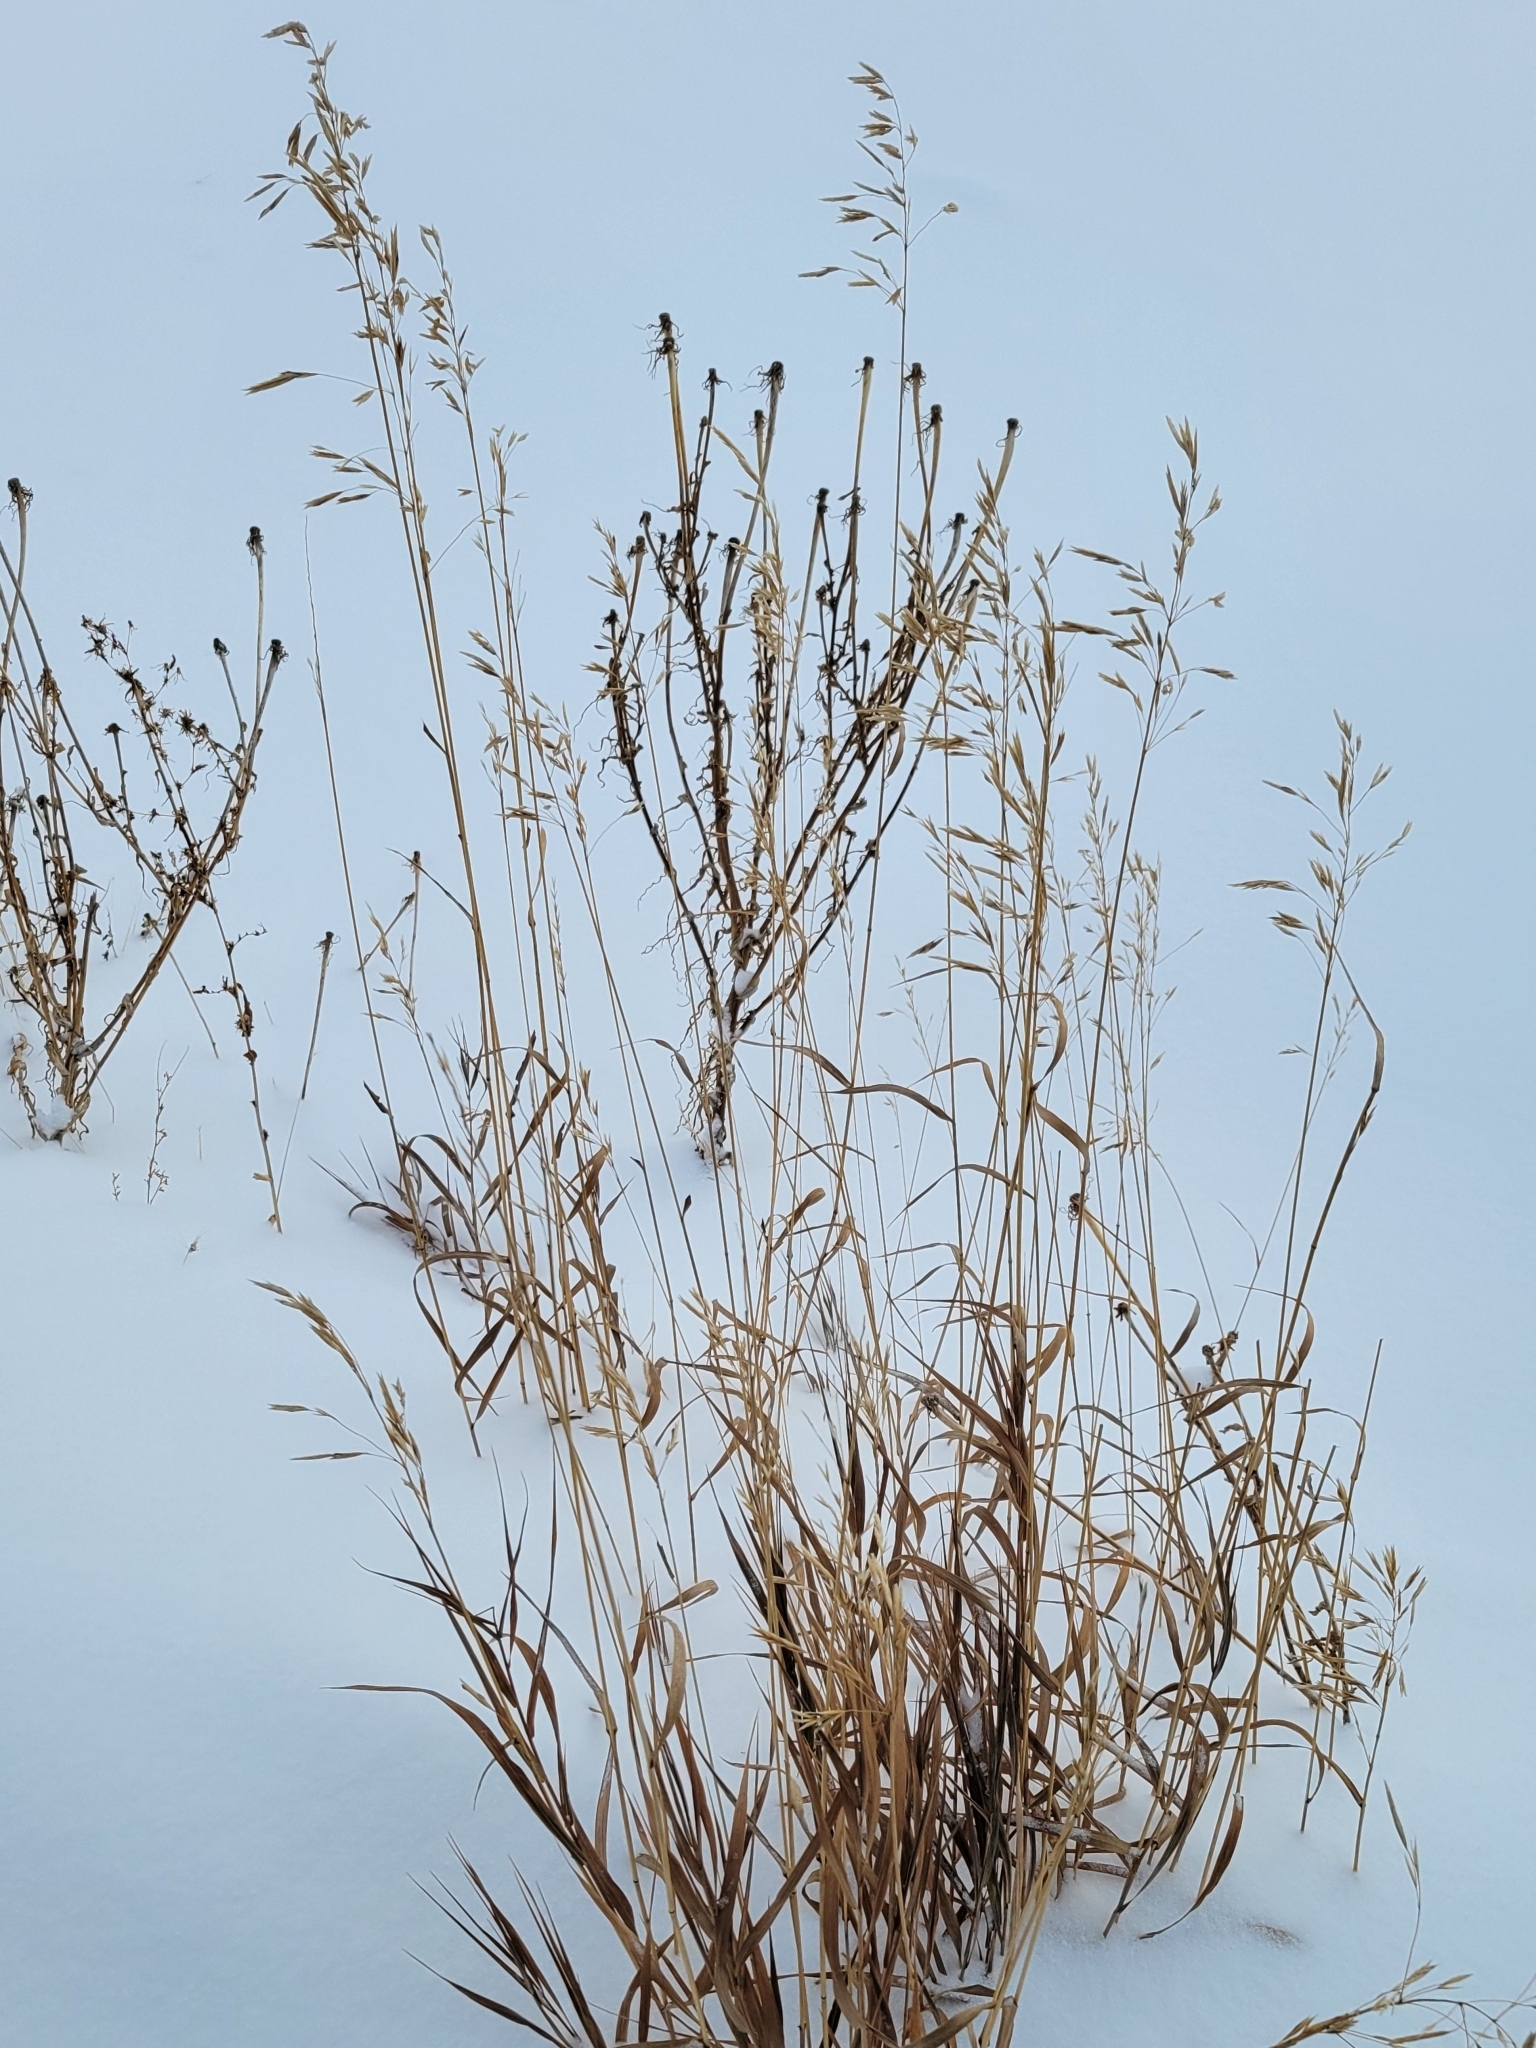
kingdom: Plantae
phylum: Tracheophyta
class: Liliopsida
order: Poales
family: Poaceae
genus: Bromus
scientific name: Bromus inermis
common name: Smooth brome
